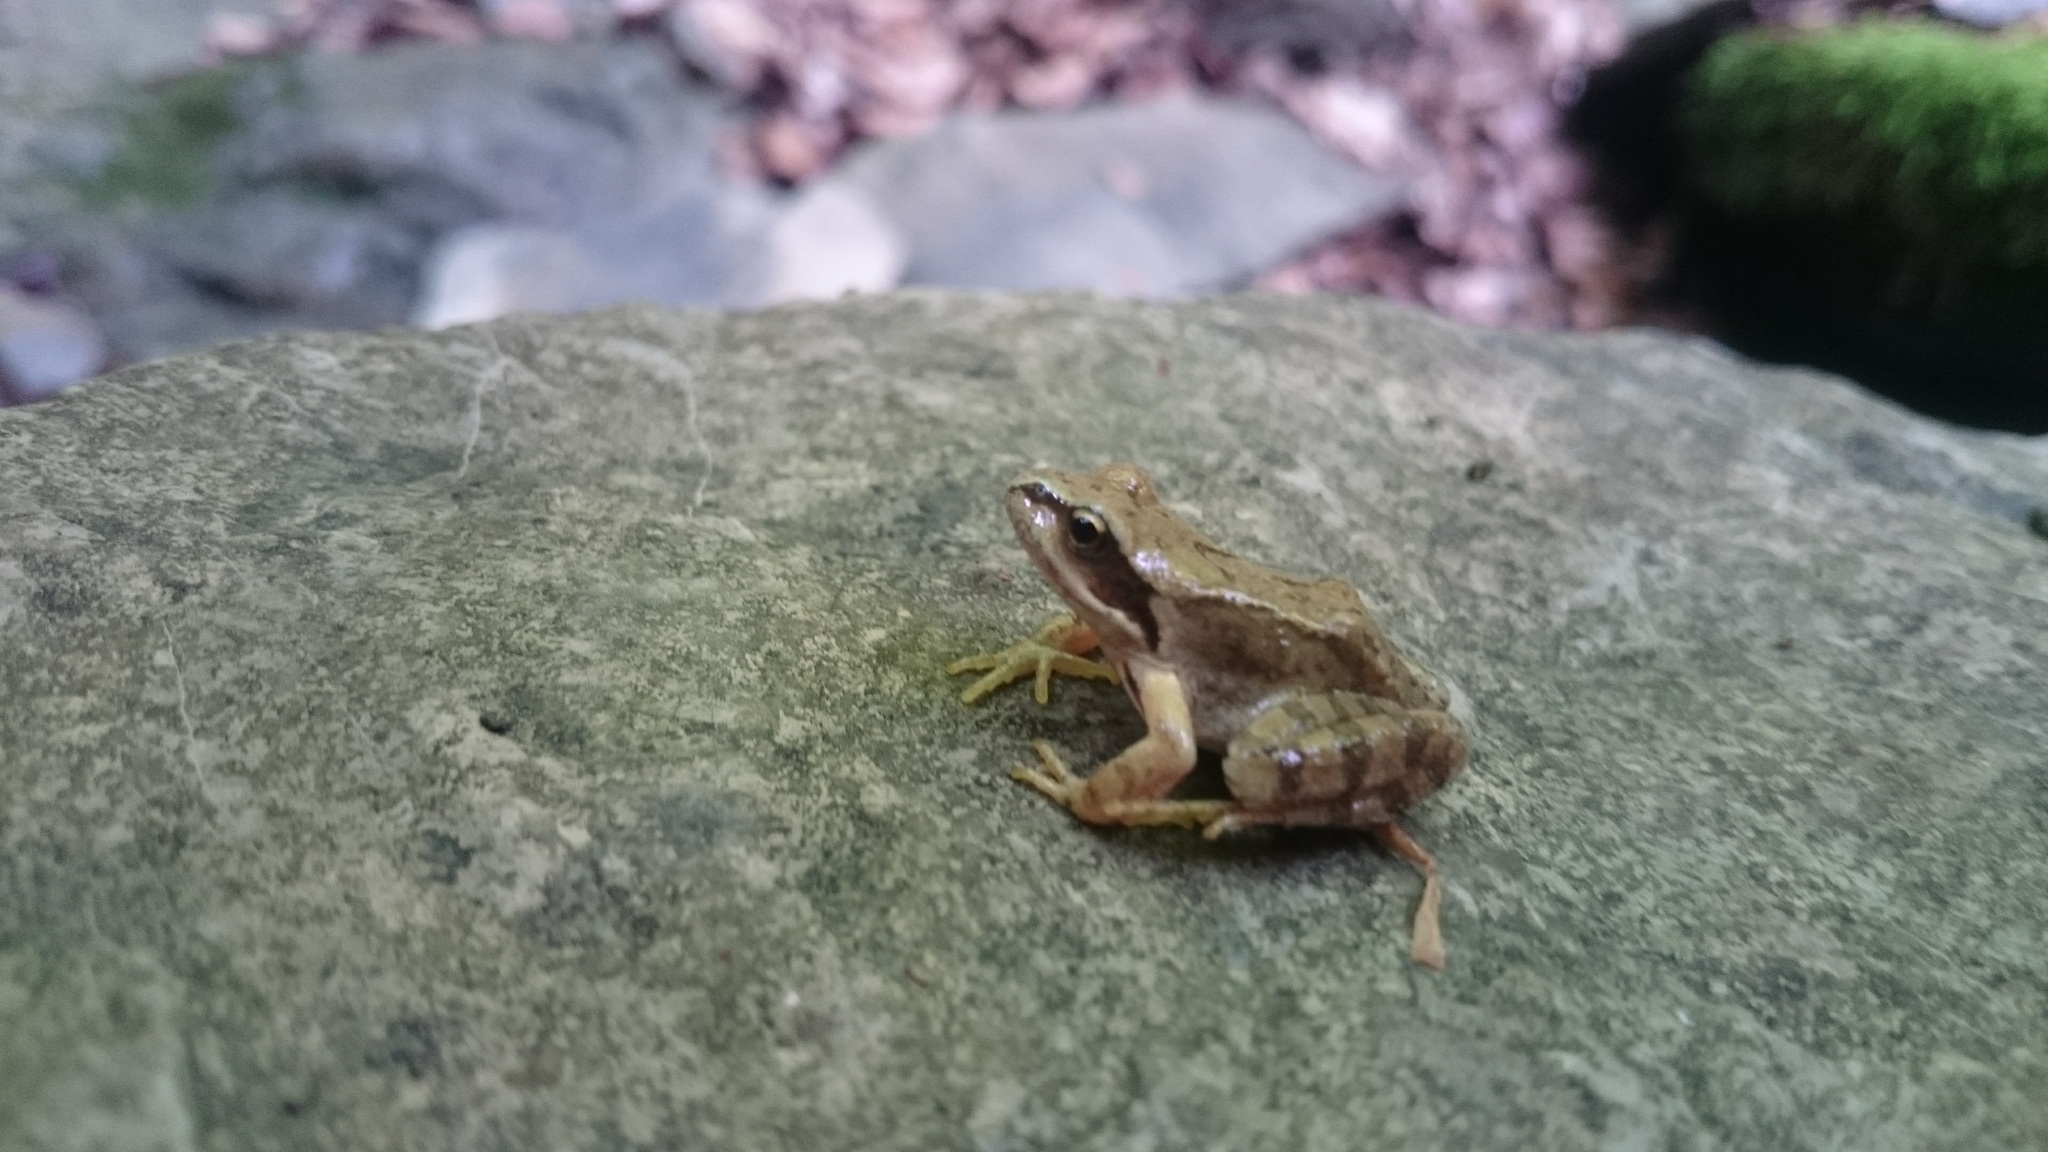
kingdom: Animalia
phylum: Chordata
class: Amphibia
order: Anura
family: Ranidae
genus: Rana
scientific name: Rana temporaria
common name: Common frog
